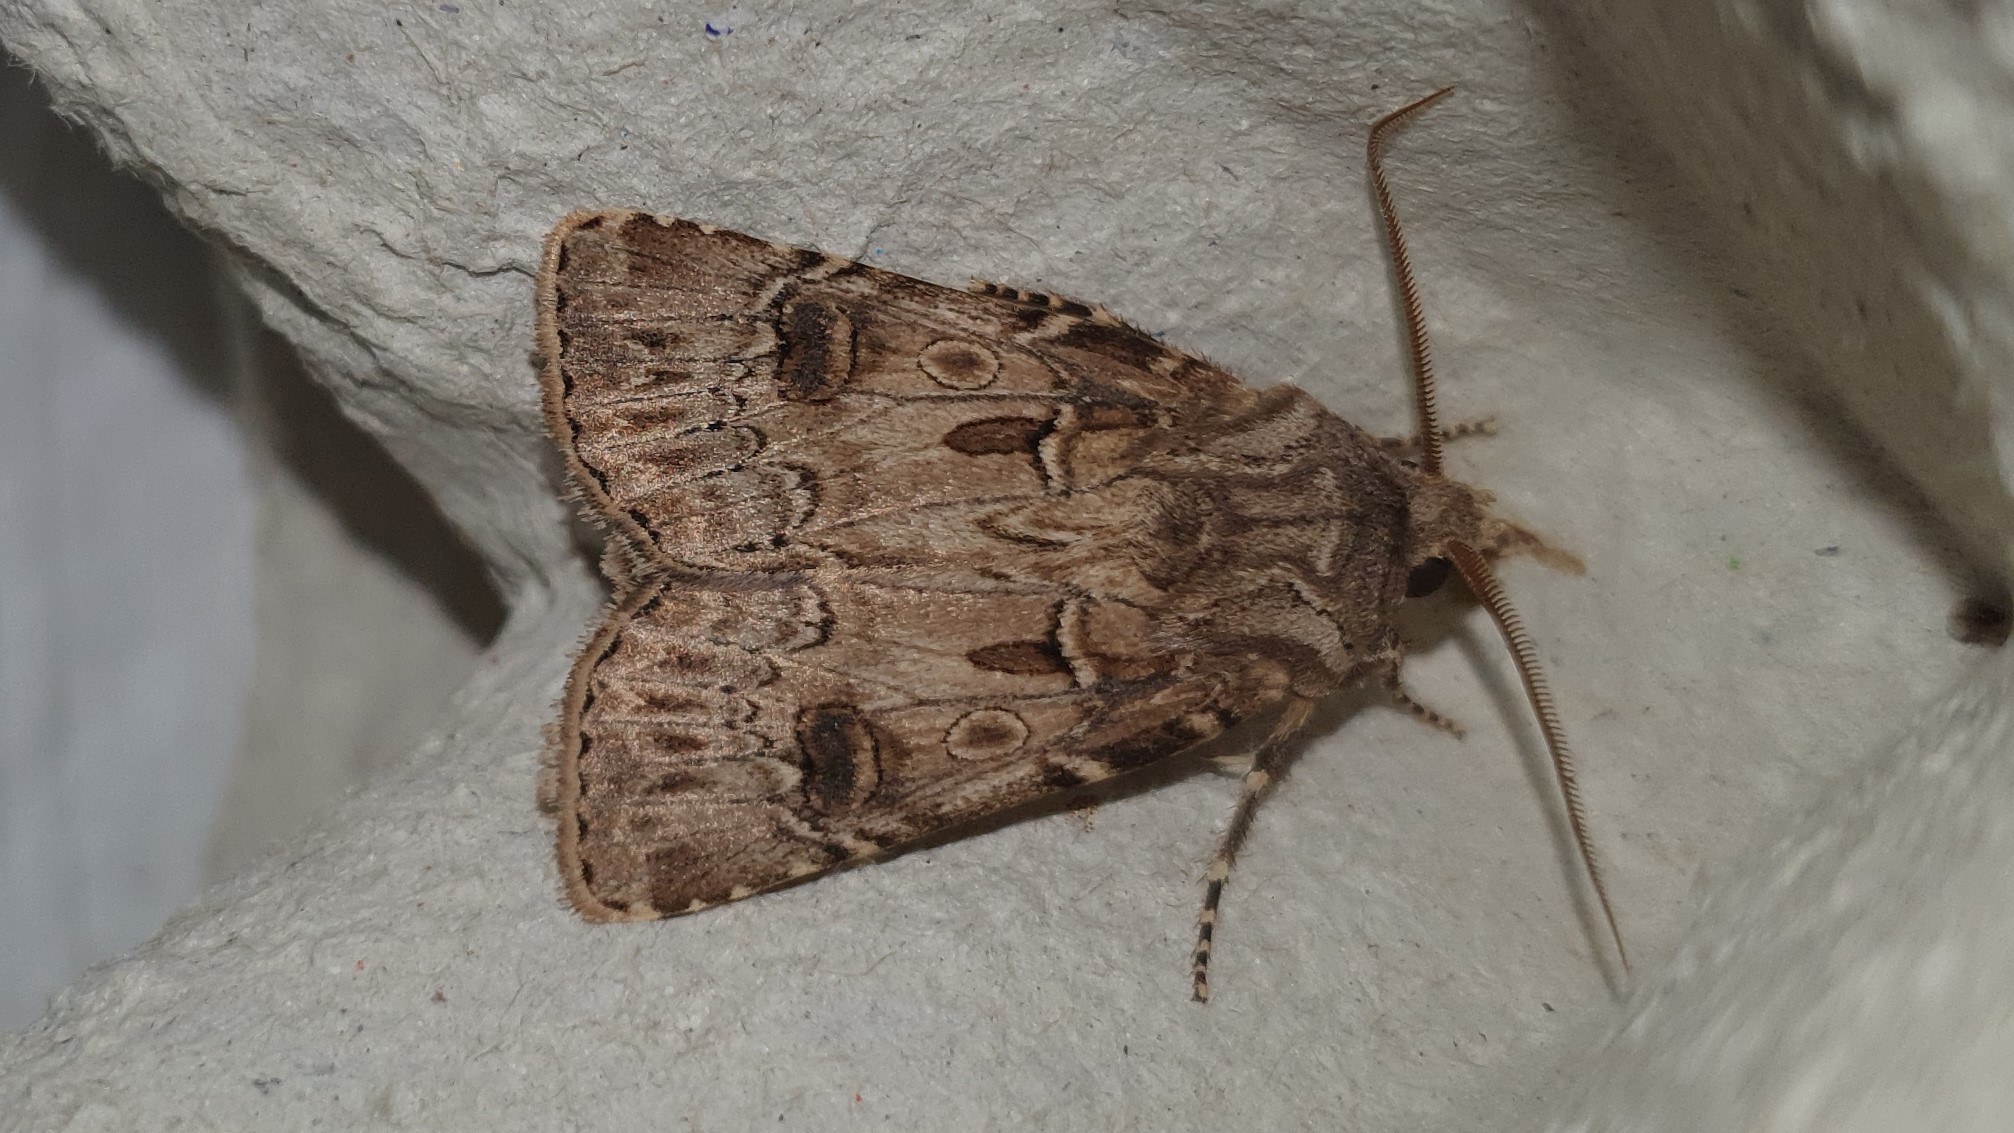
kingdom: Animalia
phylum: Arthropoda
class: Insecta
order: Lepidoptera
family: Noctuidae
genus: Agrotis
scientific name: Agrotis bigramma
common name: Great dart
